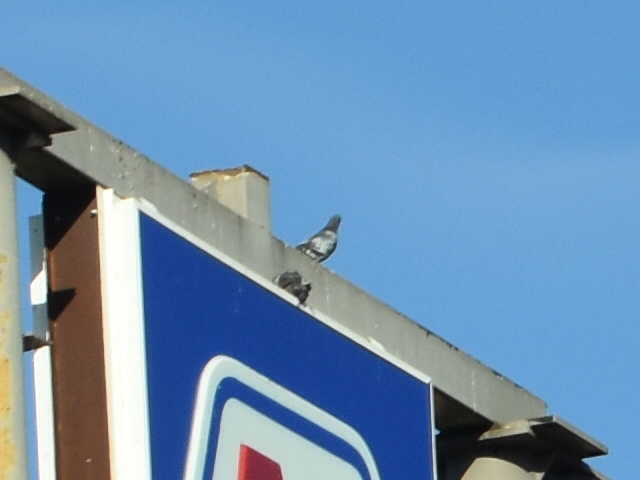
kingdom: Animalia
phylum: Chordata
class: Aves
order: Columbiformes
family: Columbidae
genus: Columba
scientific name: Columba livia
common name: Rock pigeon
